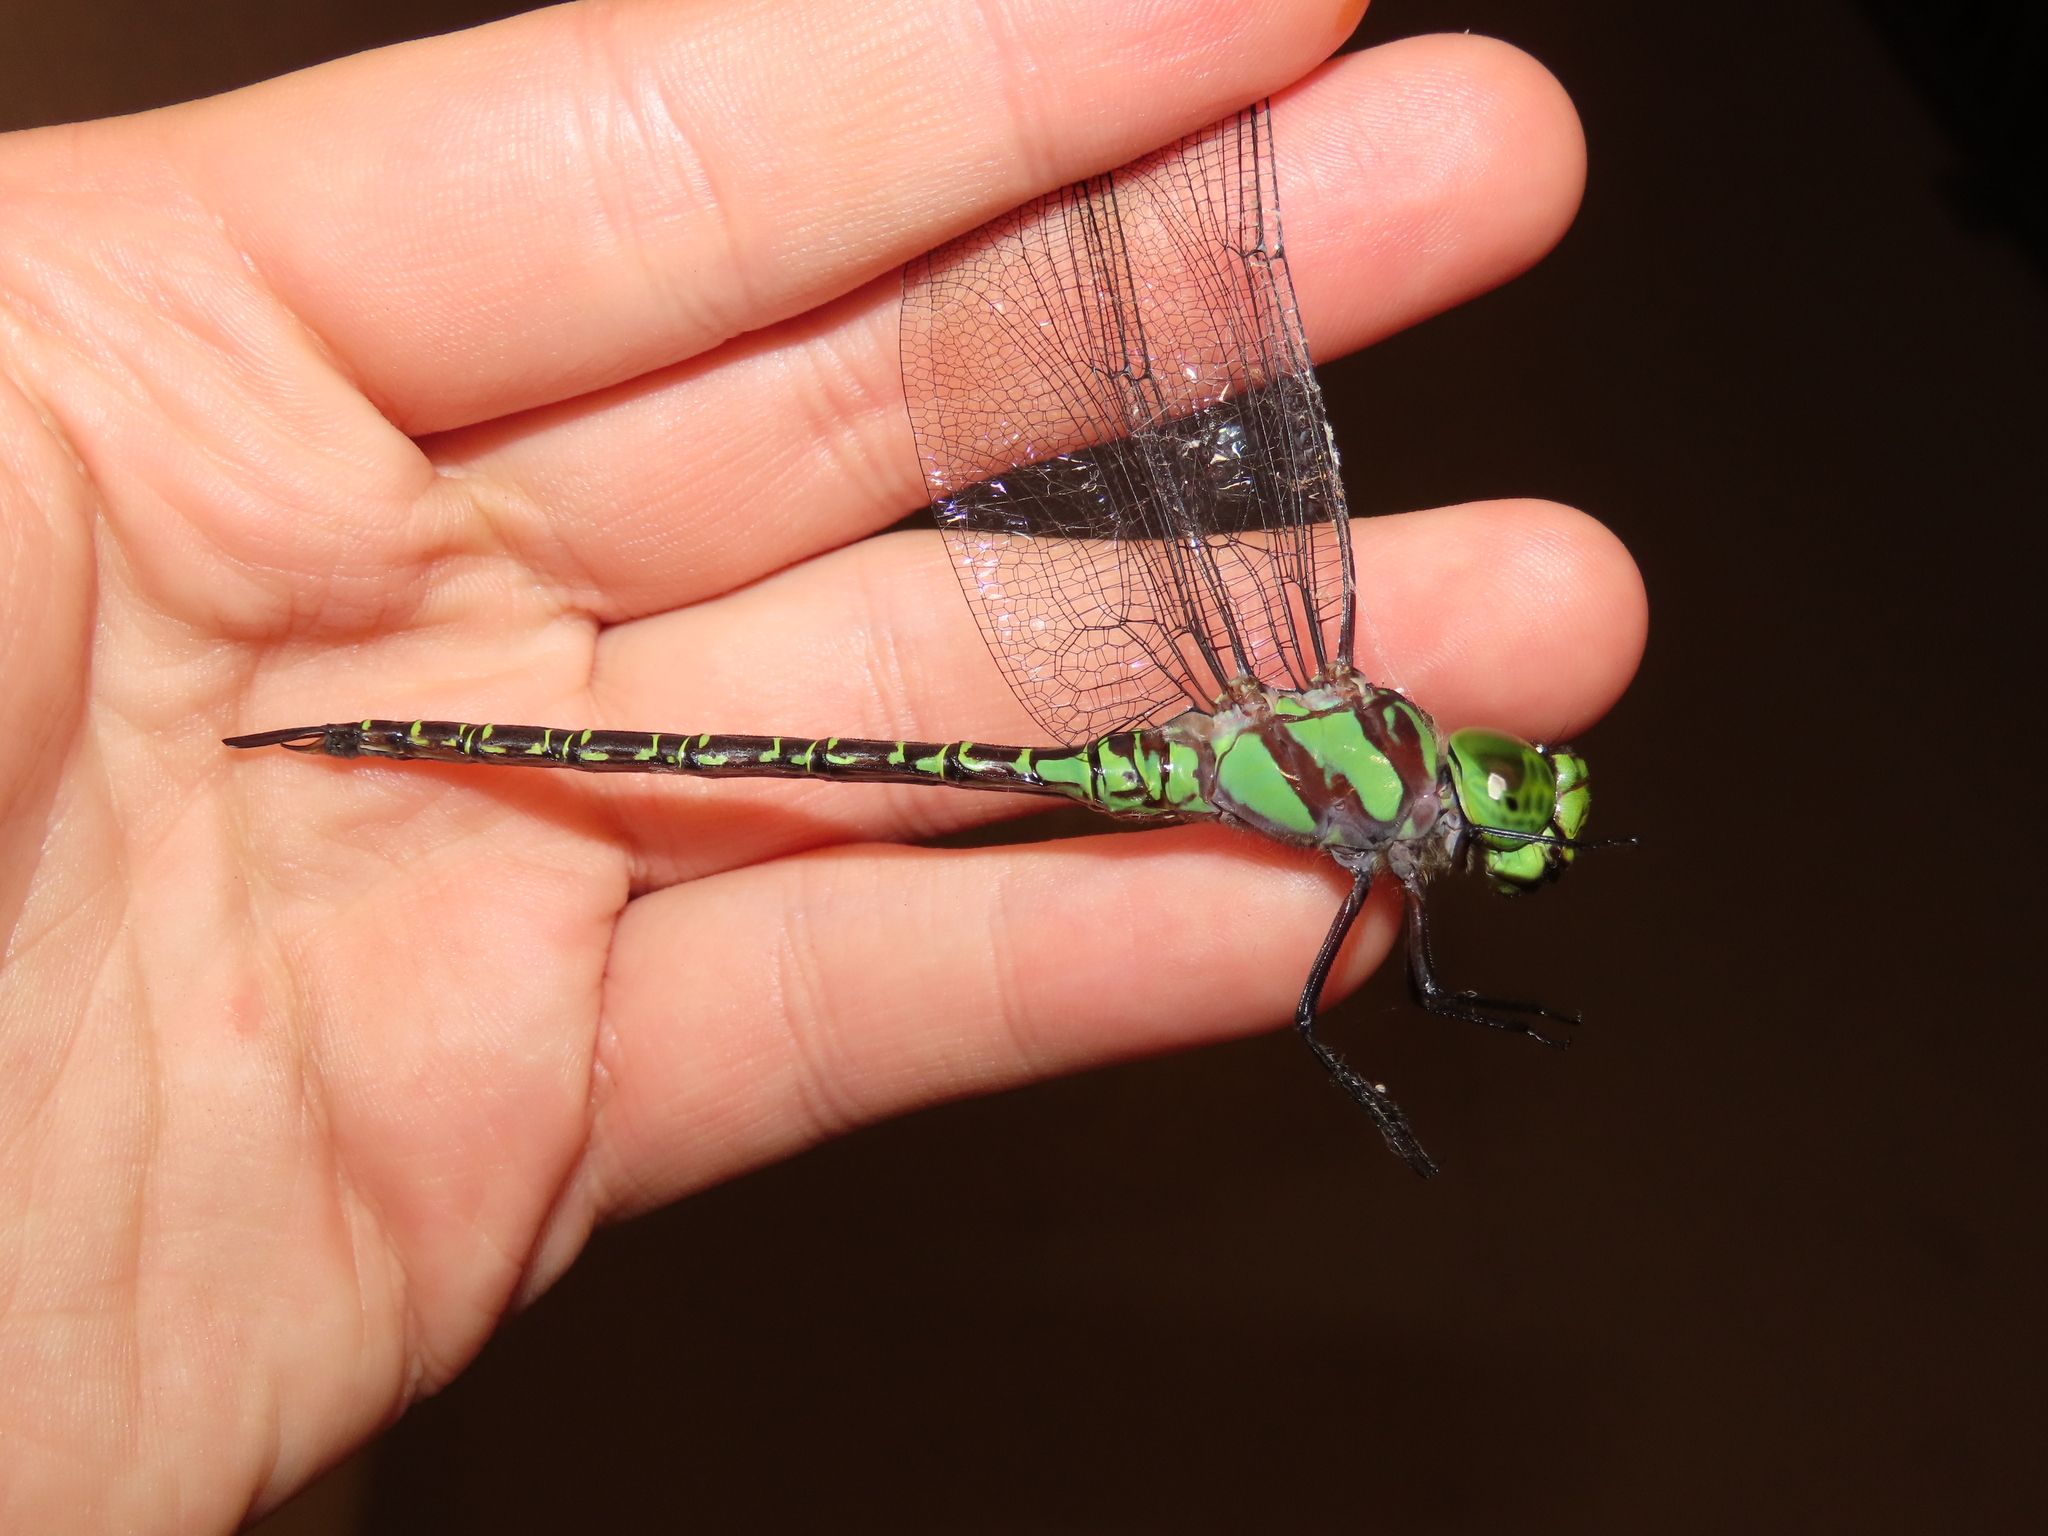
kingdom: Animalia
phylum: Arthropoda
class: Insecta
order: Odonata
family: Aeshnidae
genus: Coryphaeschna
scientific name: Coryphaeschna ingens
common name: Regal darner
